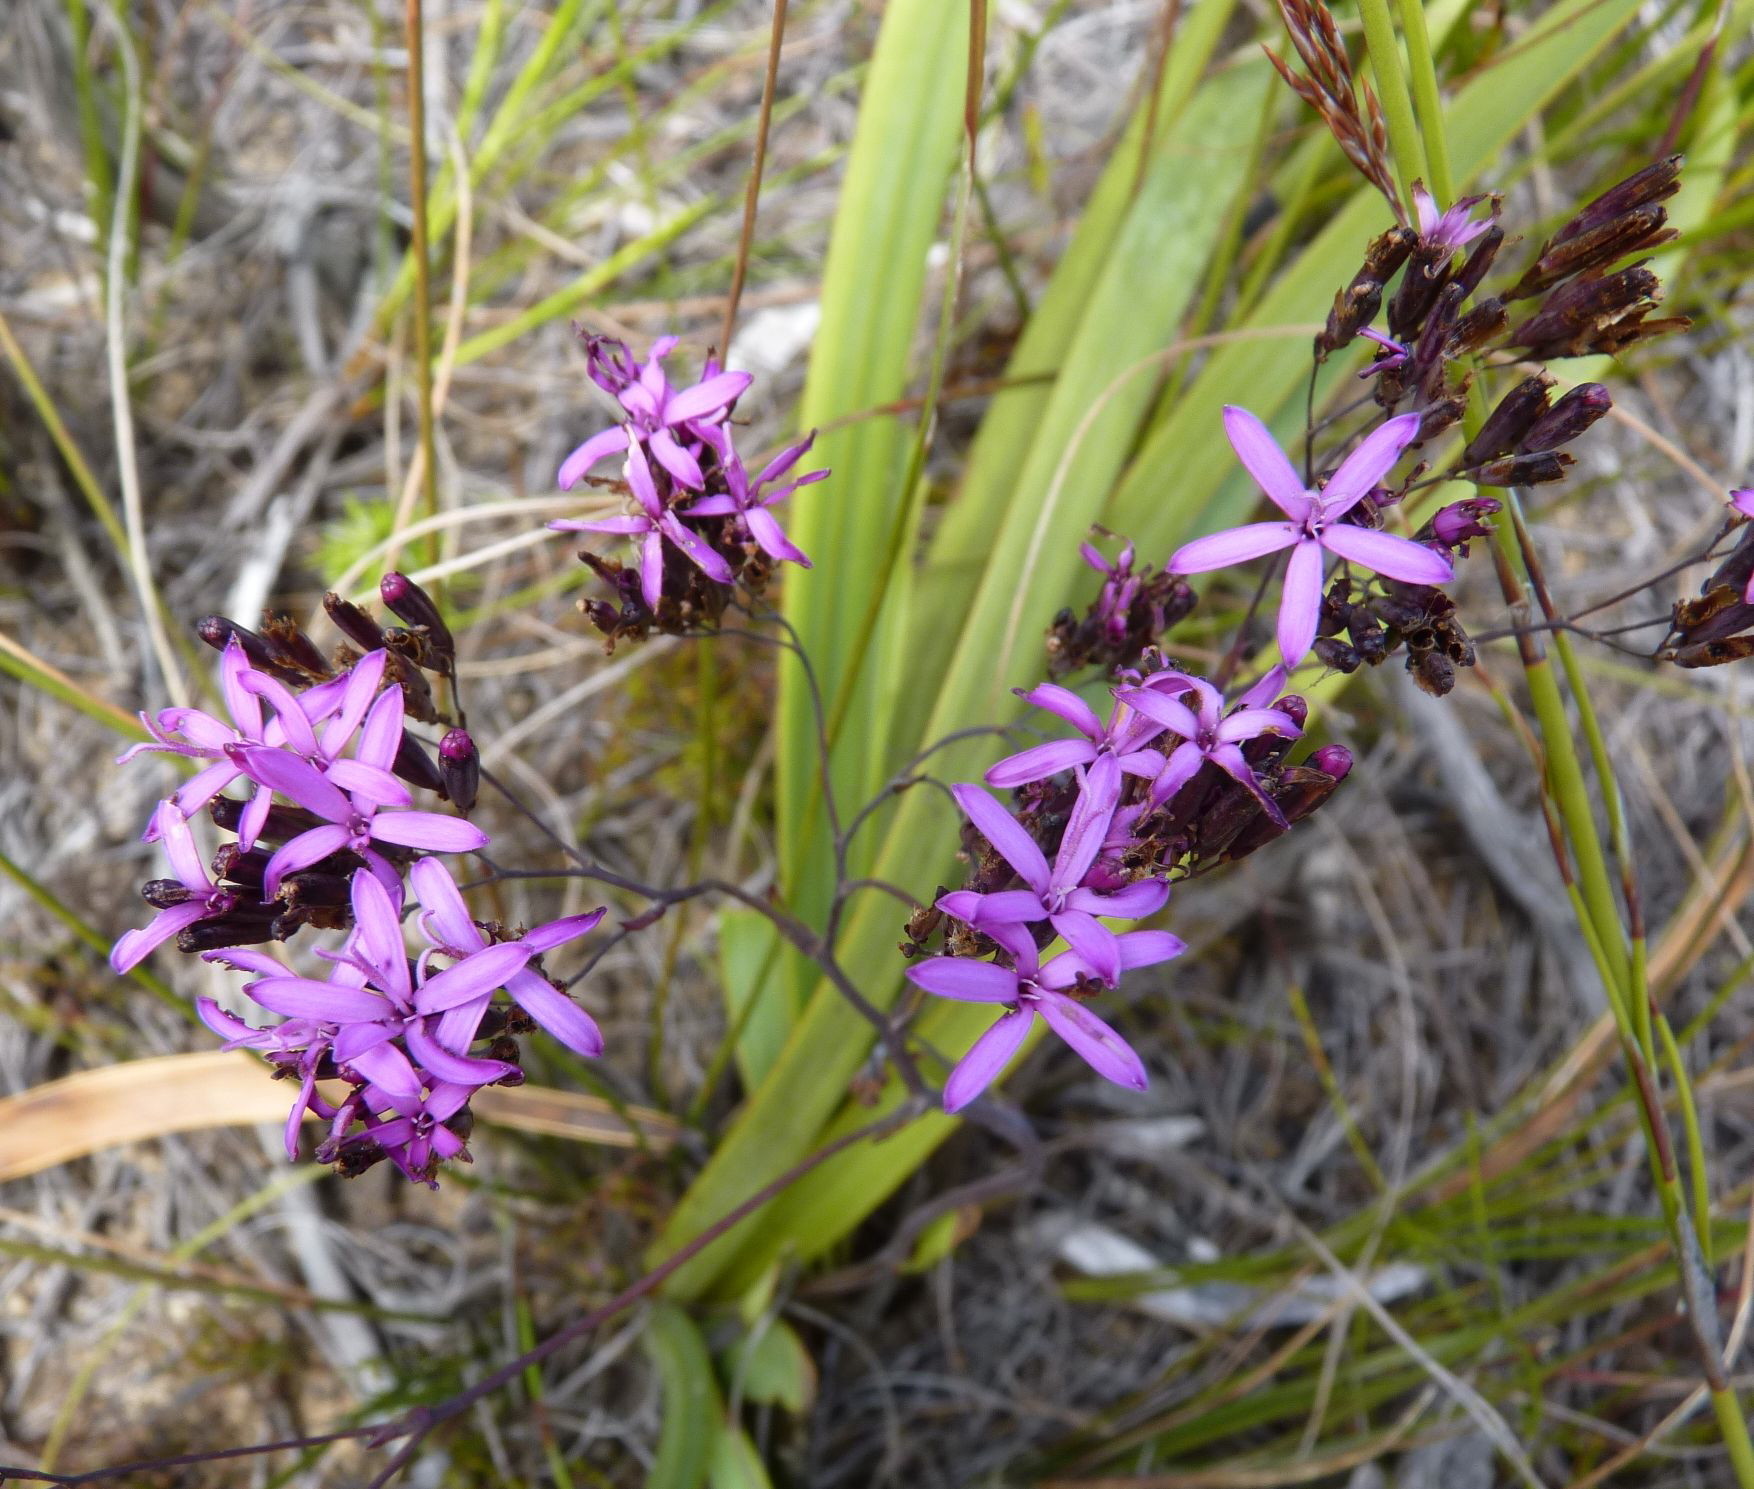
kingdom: Plantae
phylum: Tracheophyta
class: Magnoliopsida
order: Asterales
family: Asteraceae
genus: Corymbium
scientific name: Corymbium glabrum
